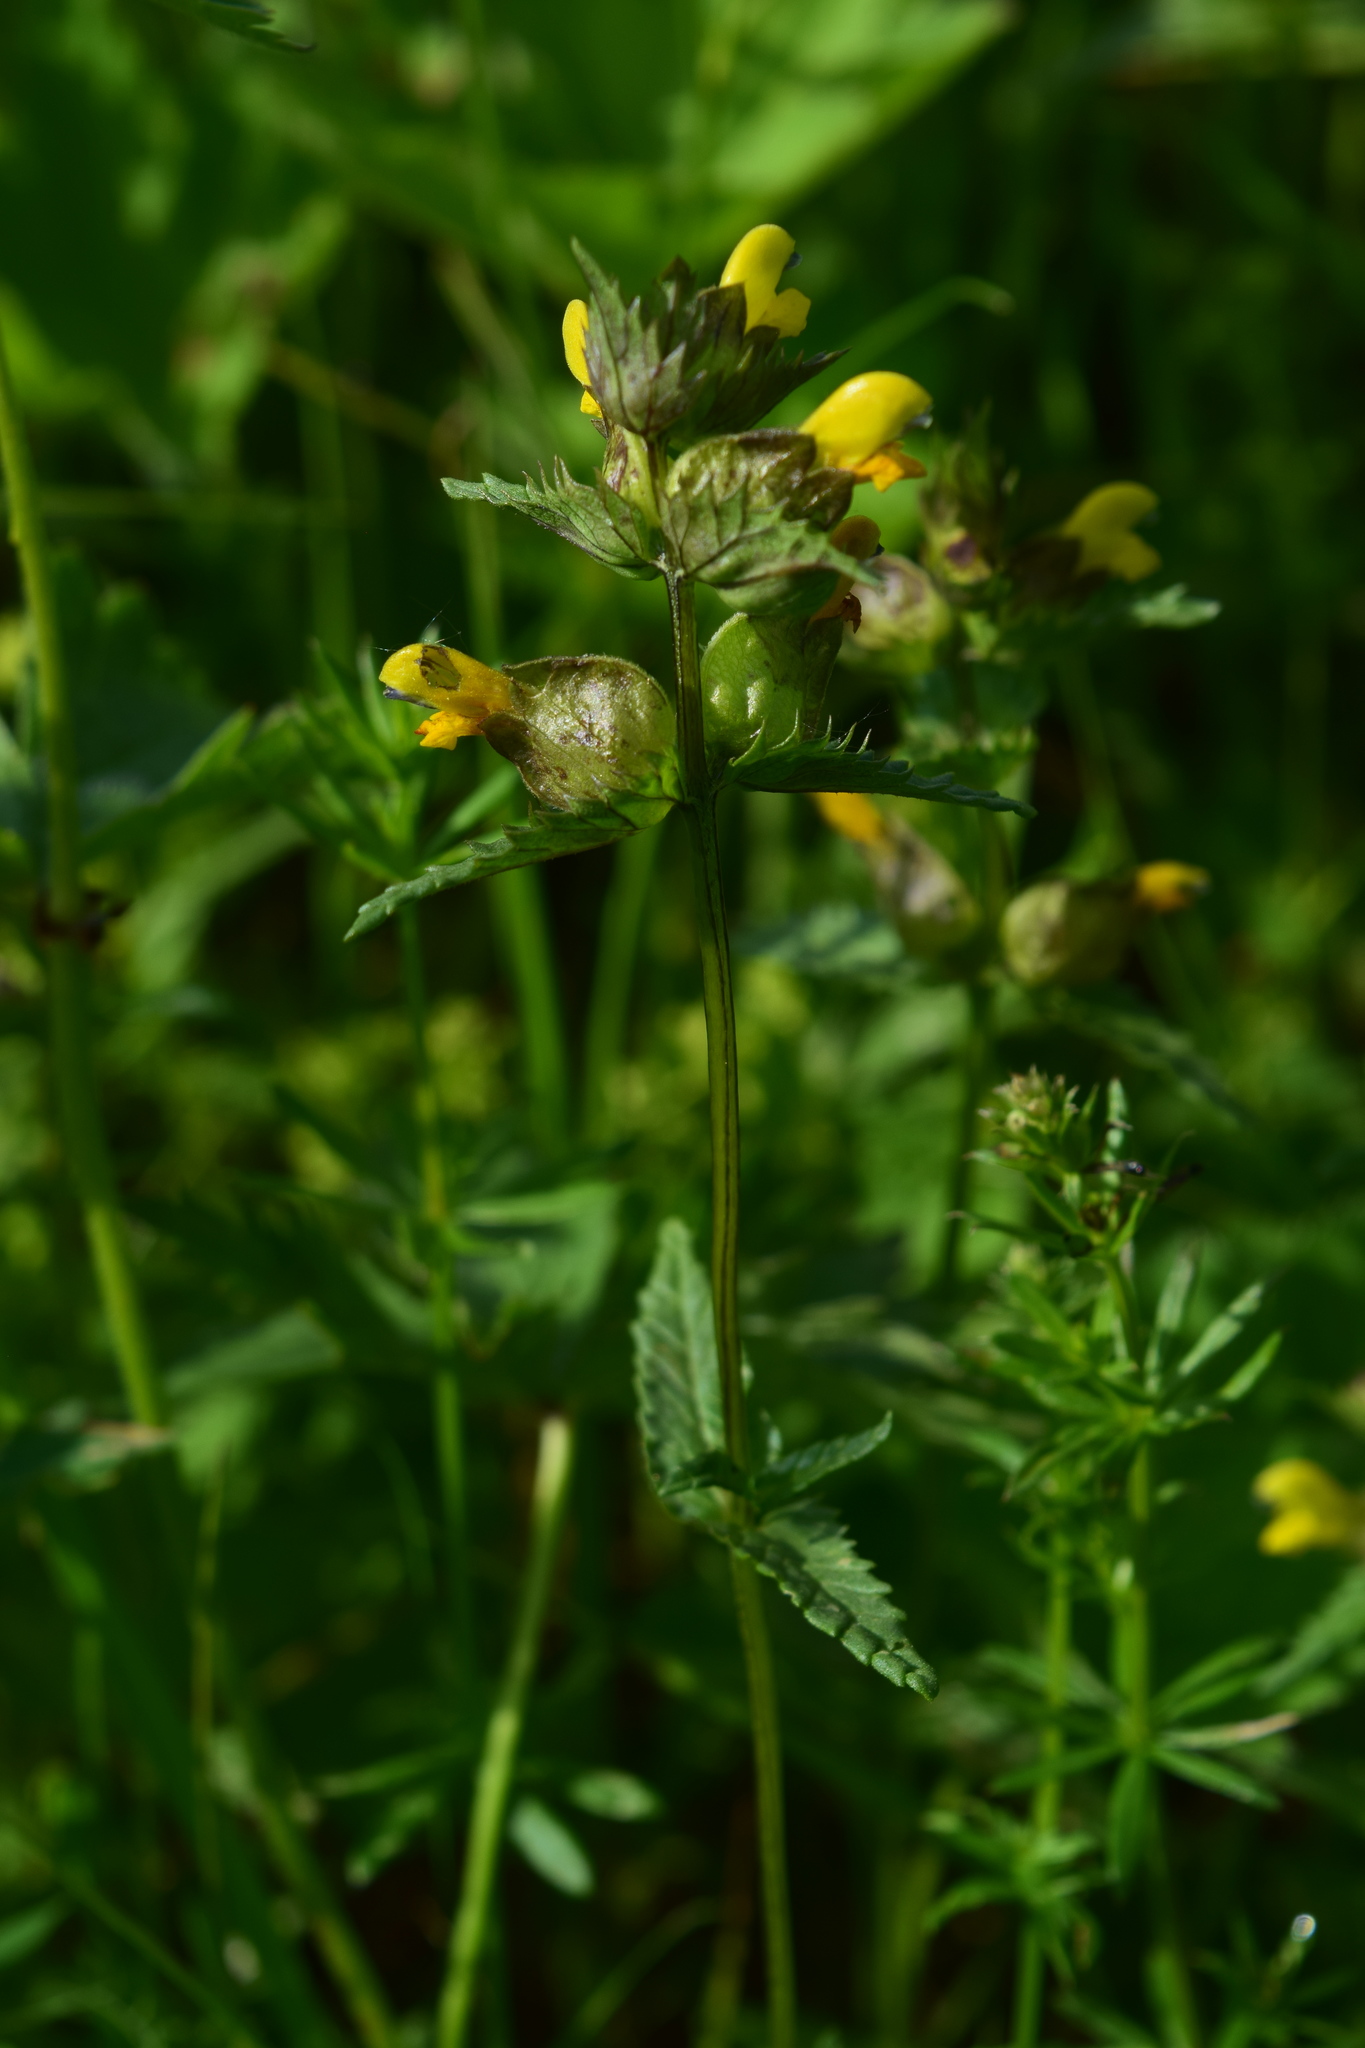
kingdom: Plantae
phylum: Tracheophyta
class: Magnoliopsida
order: Lamiales
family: Orobanchaceae
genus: Rhinanthus
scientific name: Rhinanthus minor
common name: Yellow-rattle
